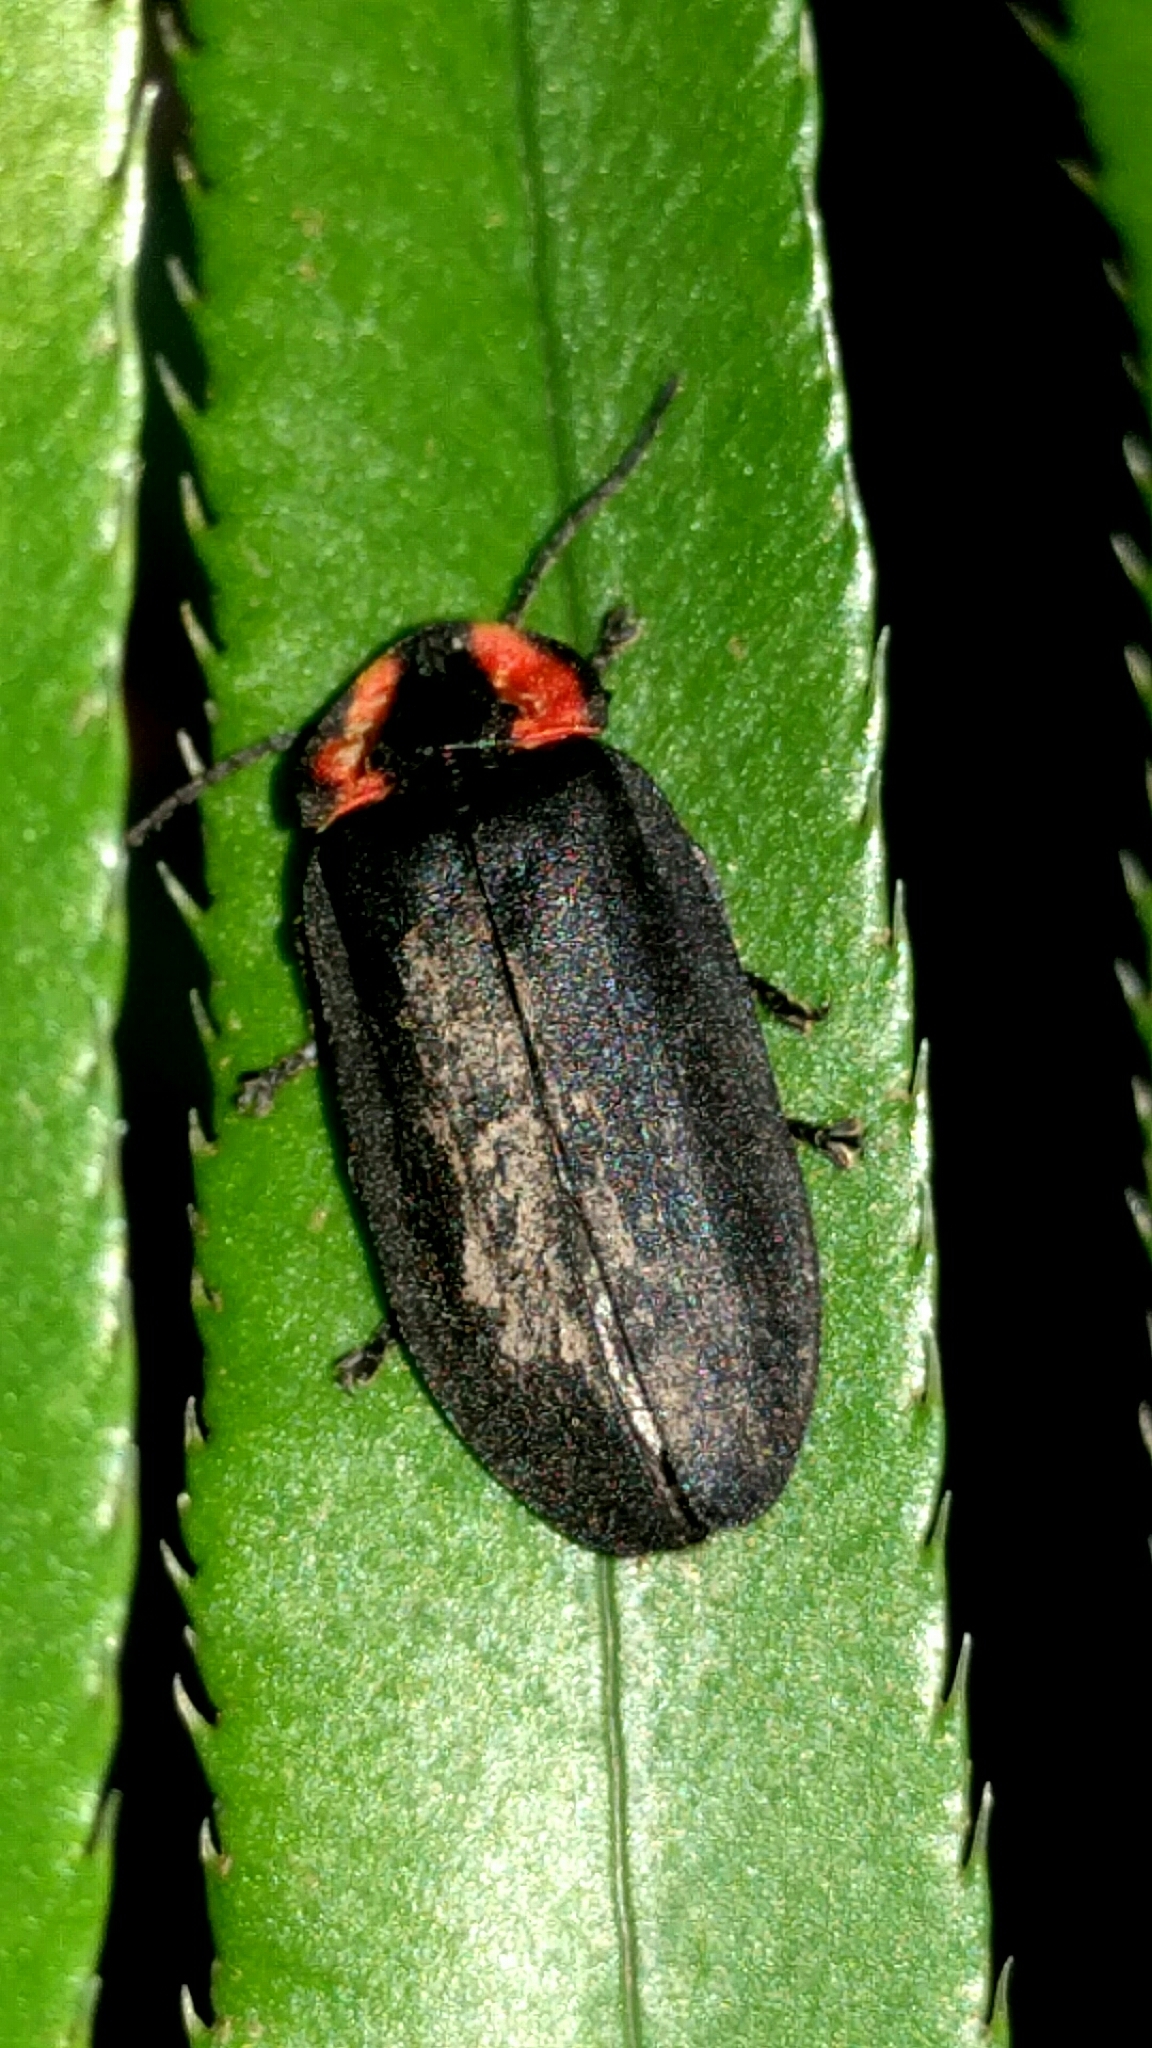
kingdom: Animalia
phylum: Arthropoda
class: Insecta
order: Coleoptera
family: Lampyridae
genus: Photinus
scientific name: Photinus californica
